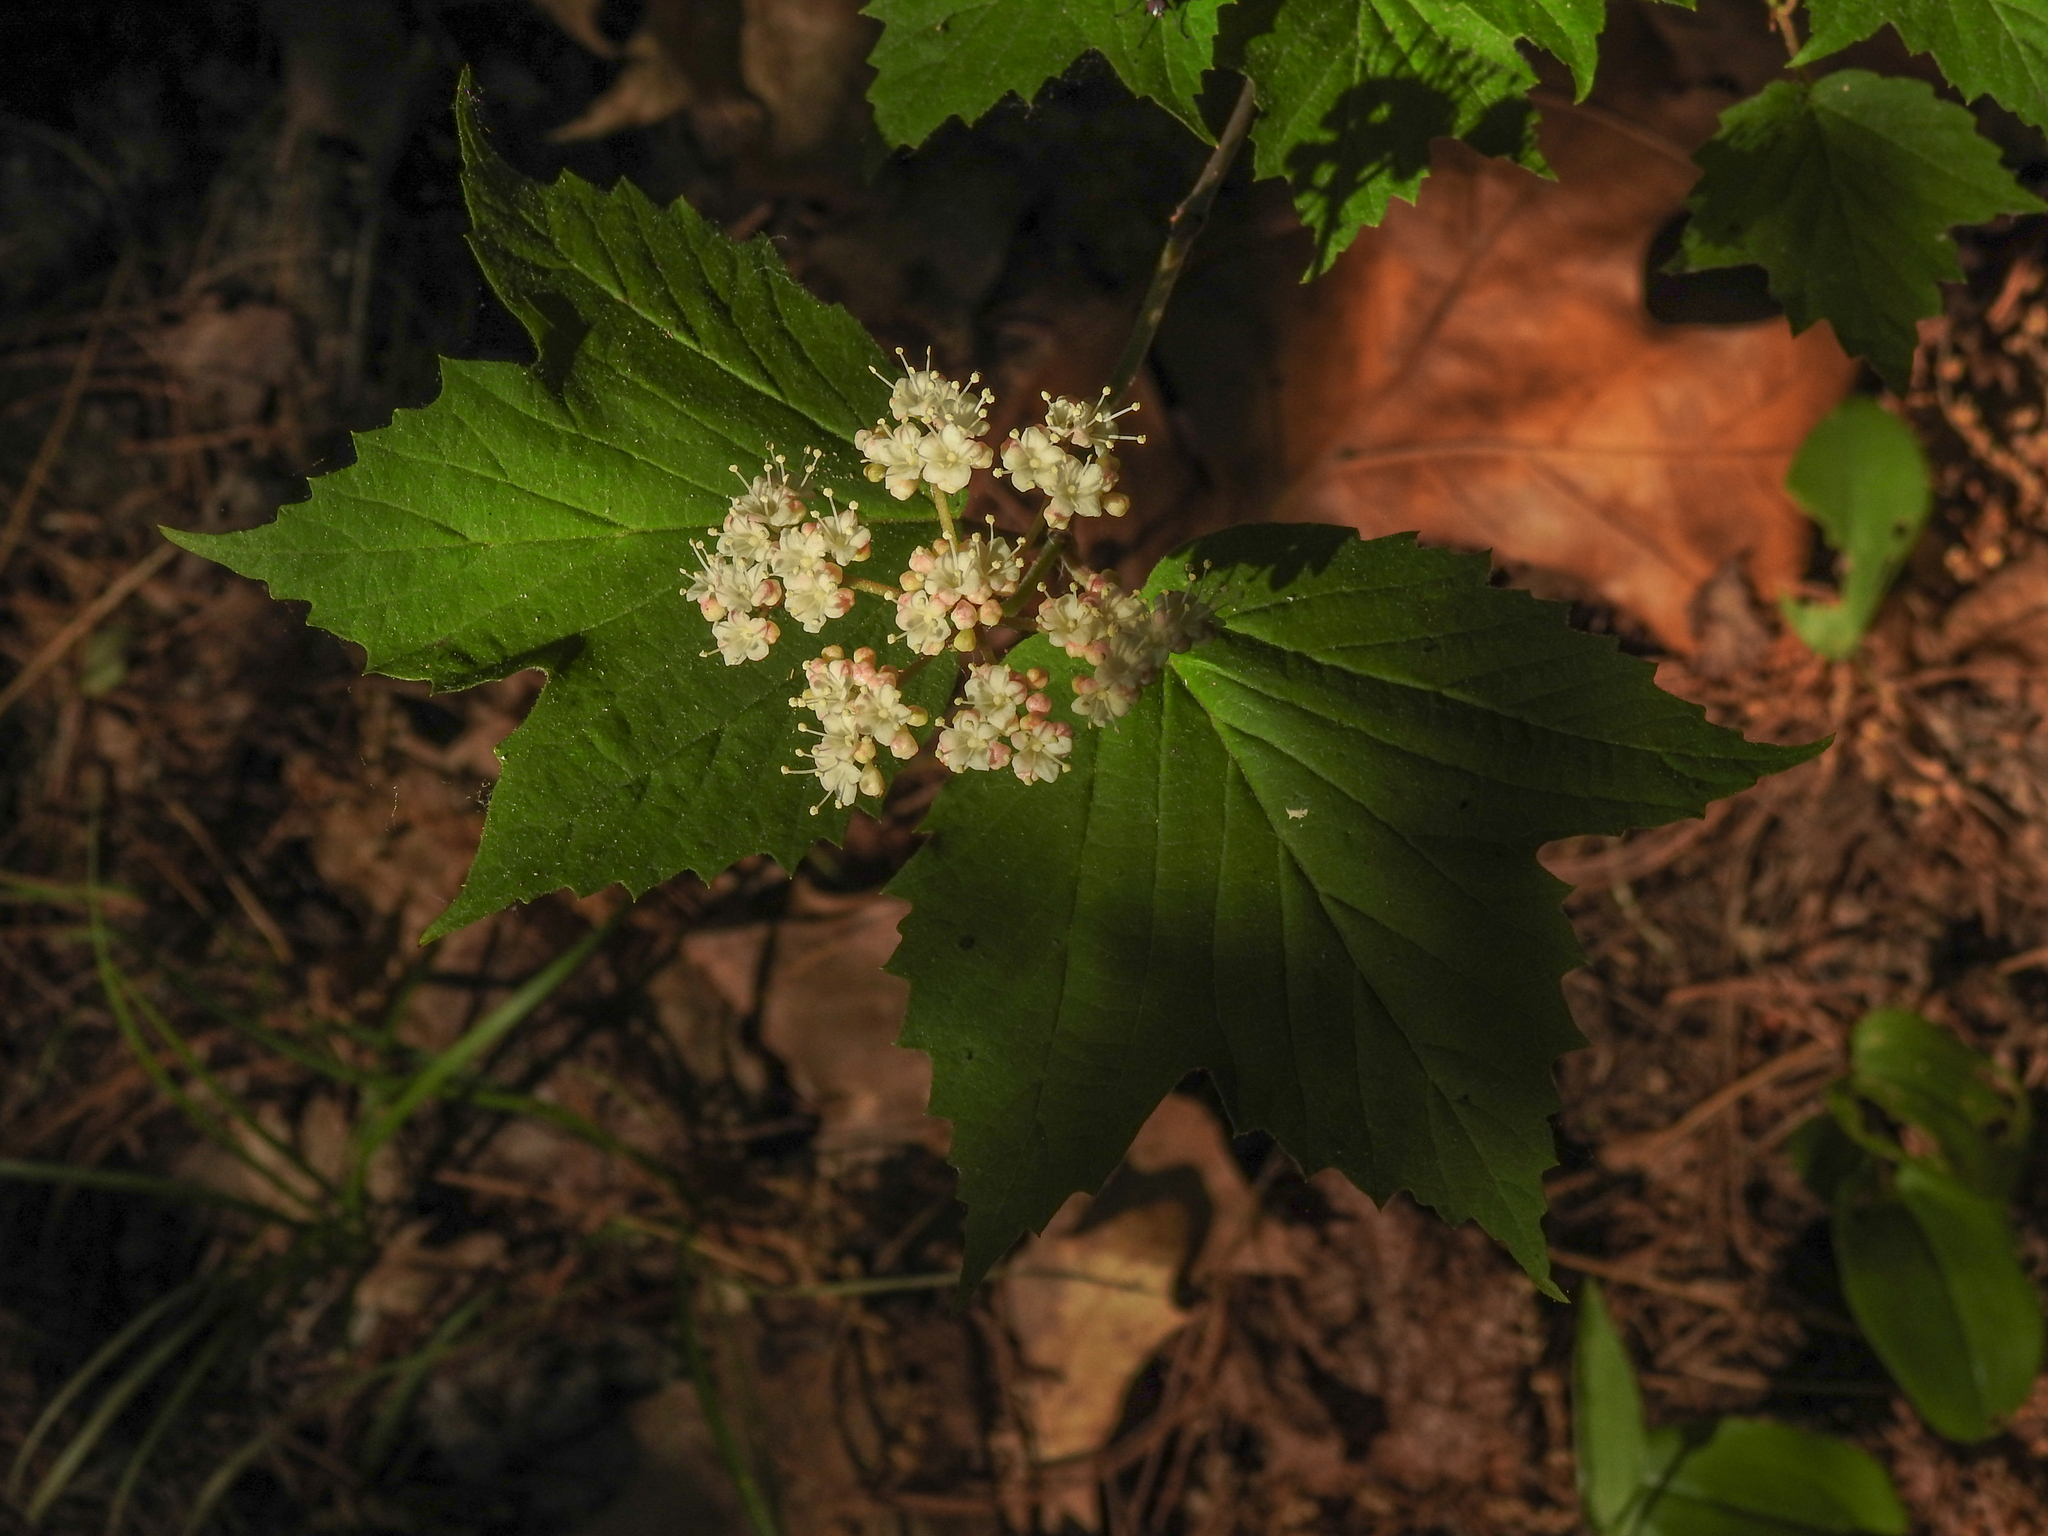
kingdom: Plantae
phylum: Tracheophyta
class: Magnoliopsida
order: Dipsacales
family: Viburnaceae
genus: Viburnum
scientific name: Viburnum acerifolium
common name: Dockmackie
